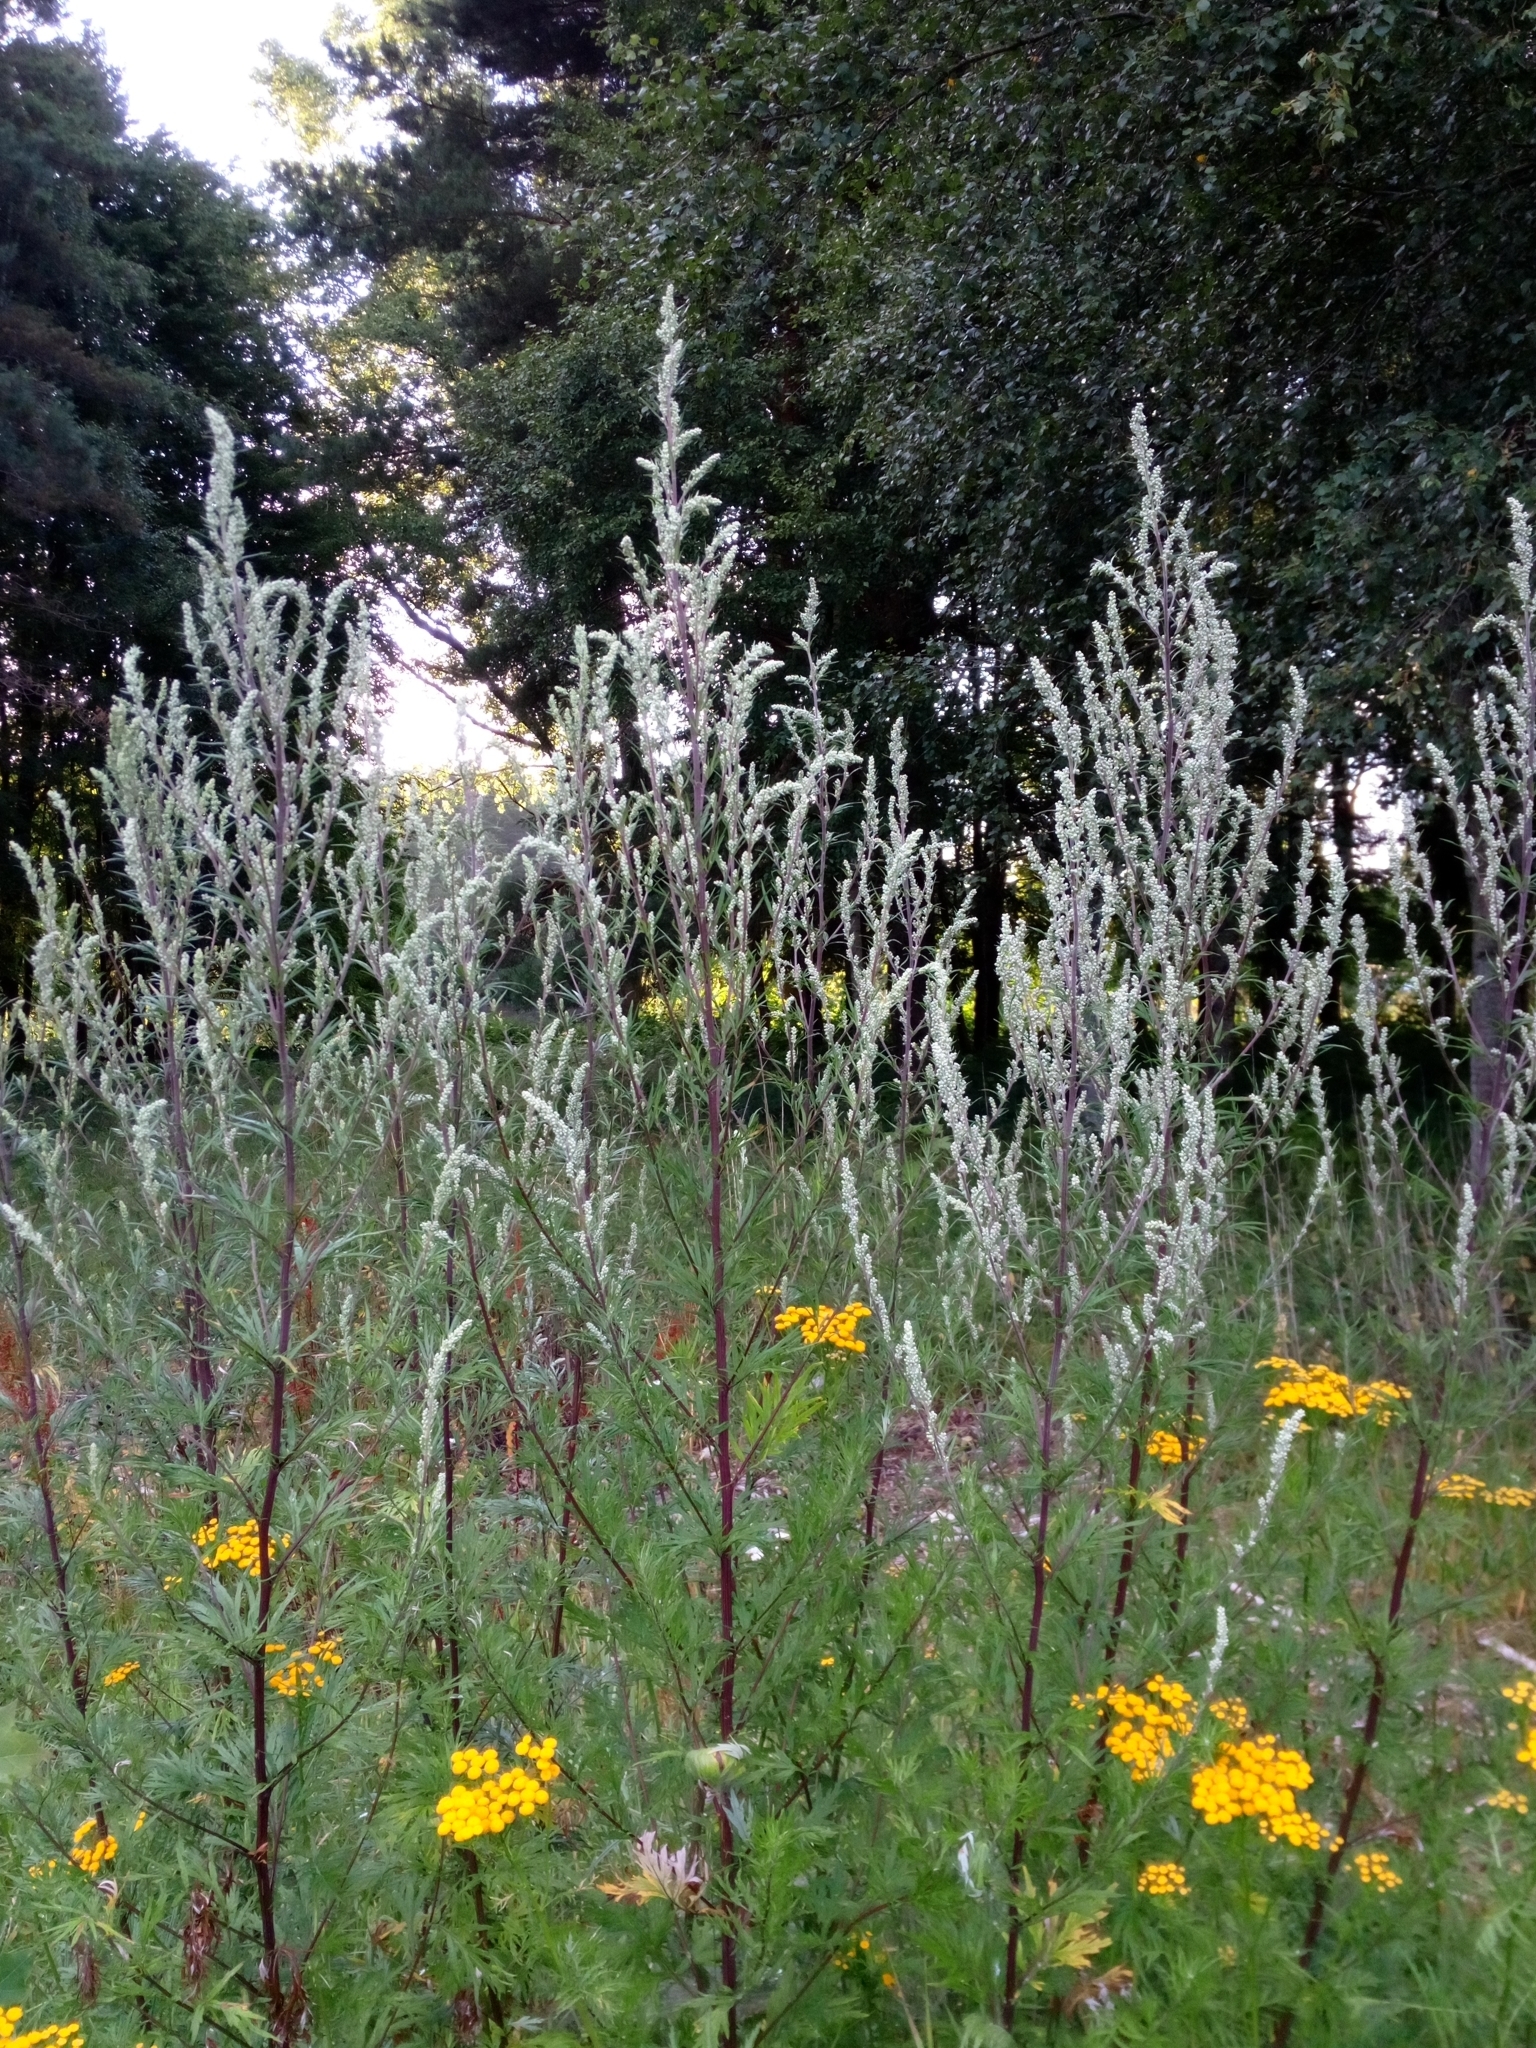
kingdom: Plantae
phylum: Tracheophyta
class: Magnoliopsida
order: Asterales
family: Asteraceae
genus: Artemisia
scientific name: Artemisia vulgaris
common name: Mugwort
